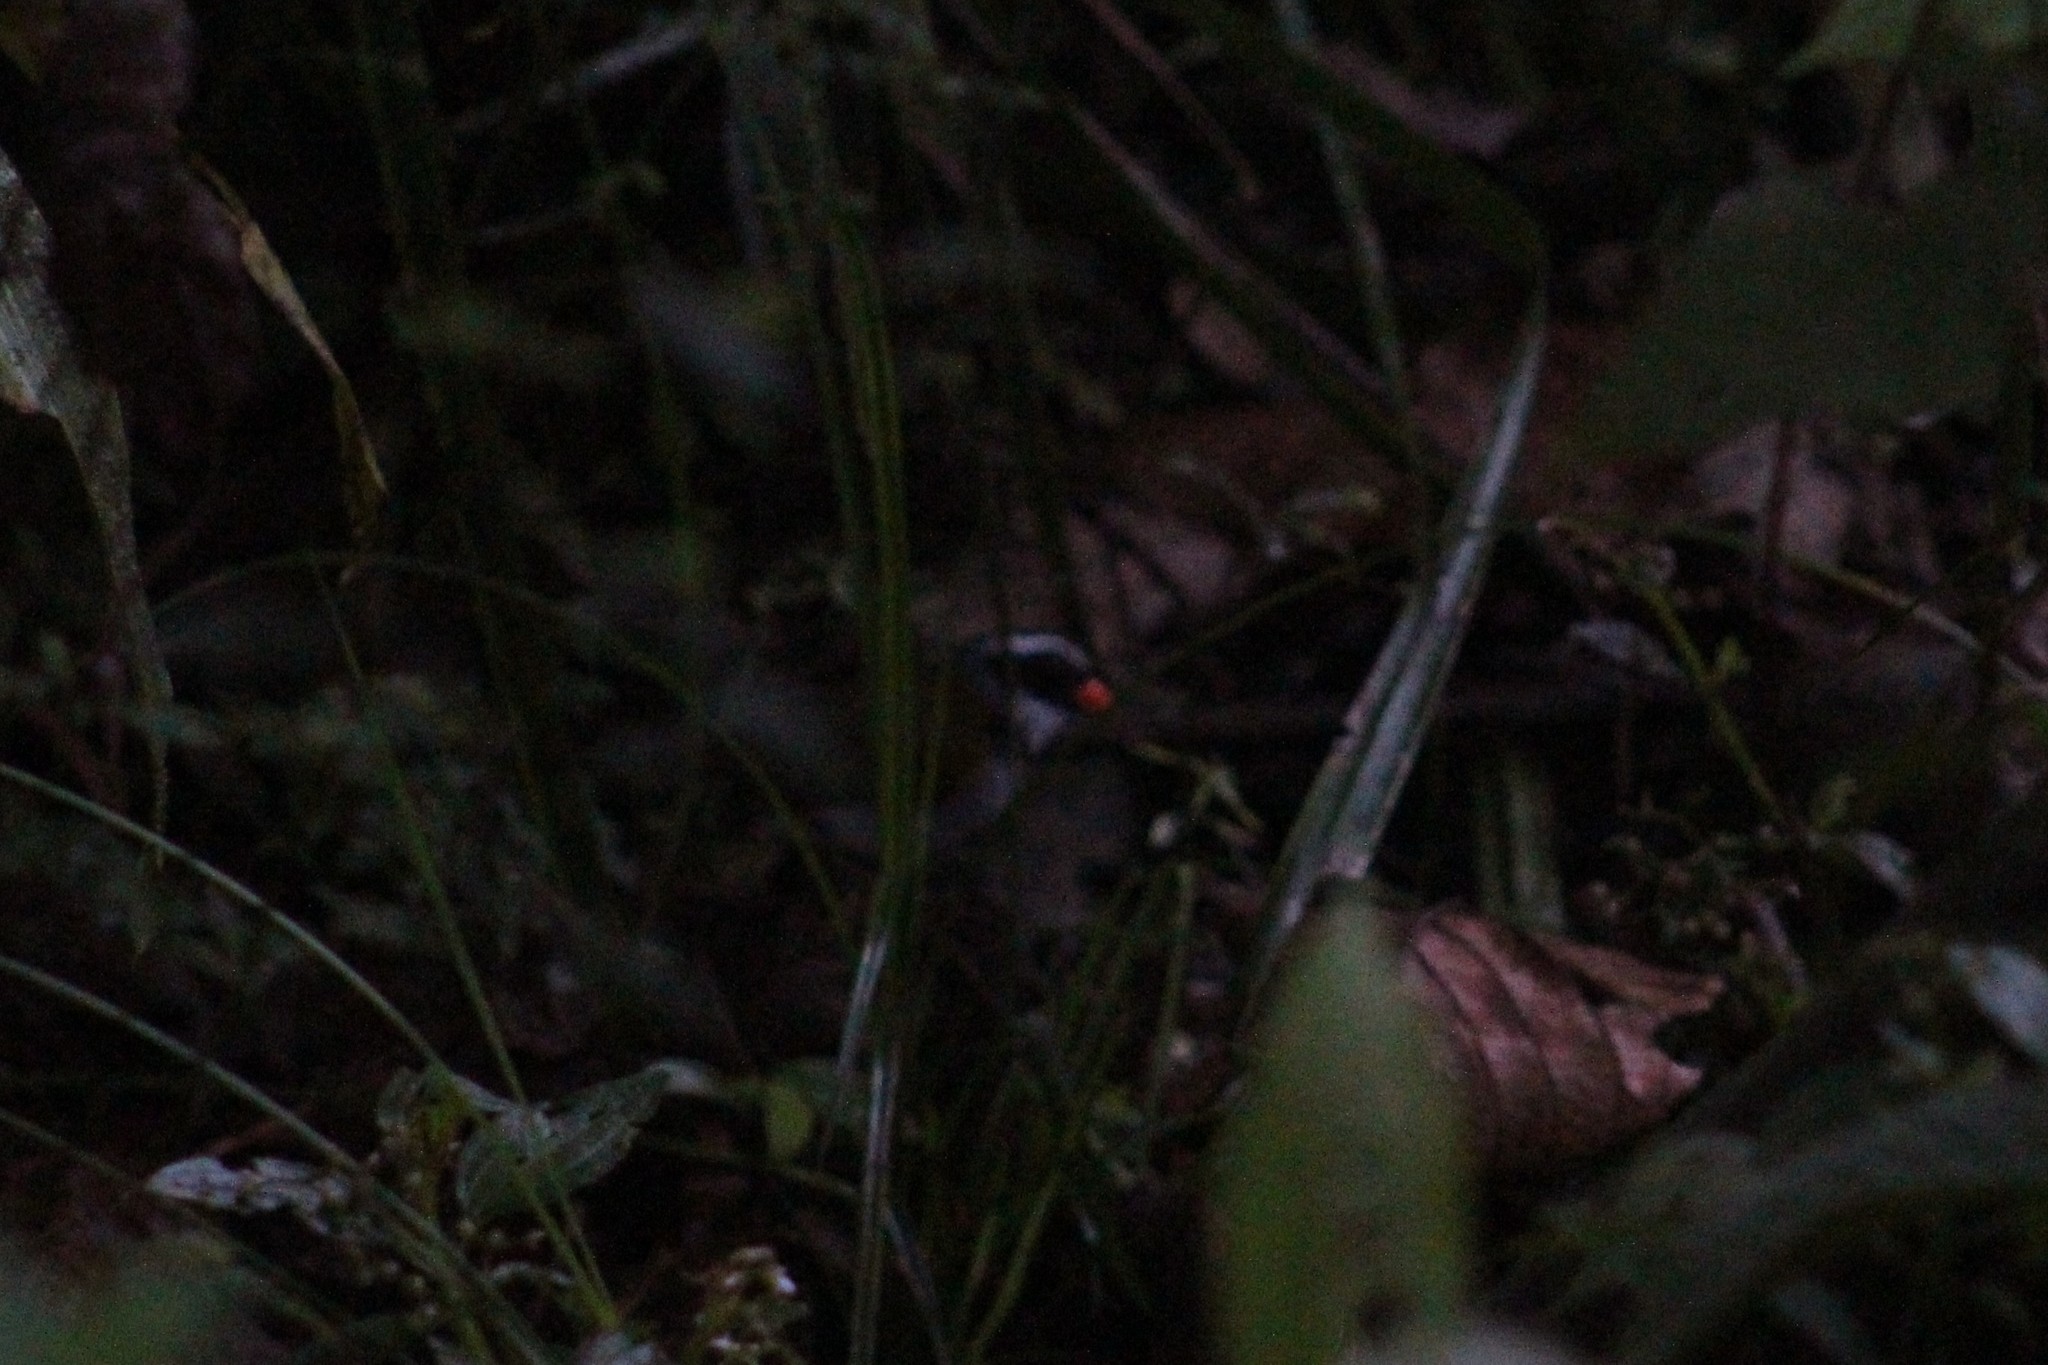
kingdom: Animalia
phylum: Chordata
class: Aves
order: Passeriformes
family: Passerellidae
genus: Arremon
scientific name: Arremon aurantiirostris
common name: Orange-billed sparrow
